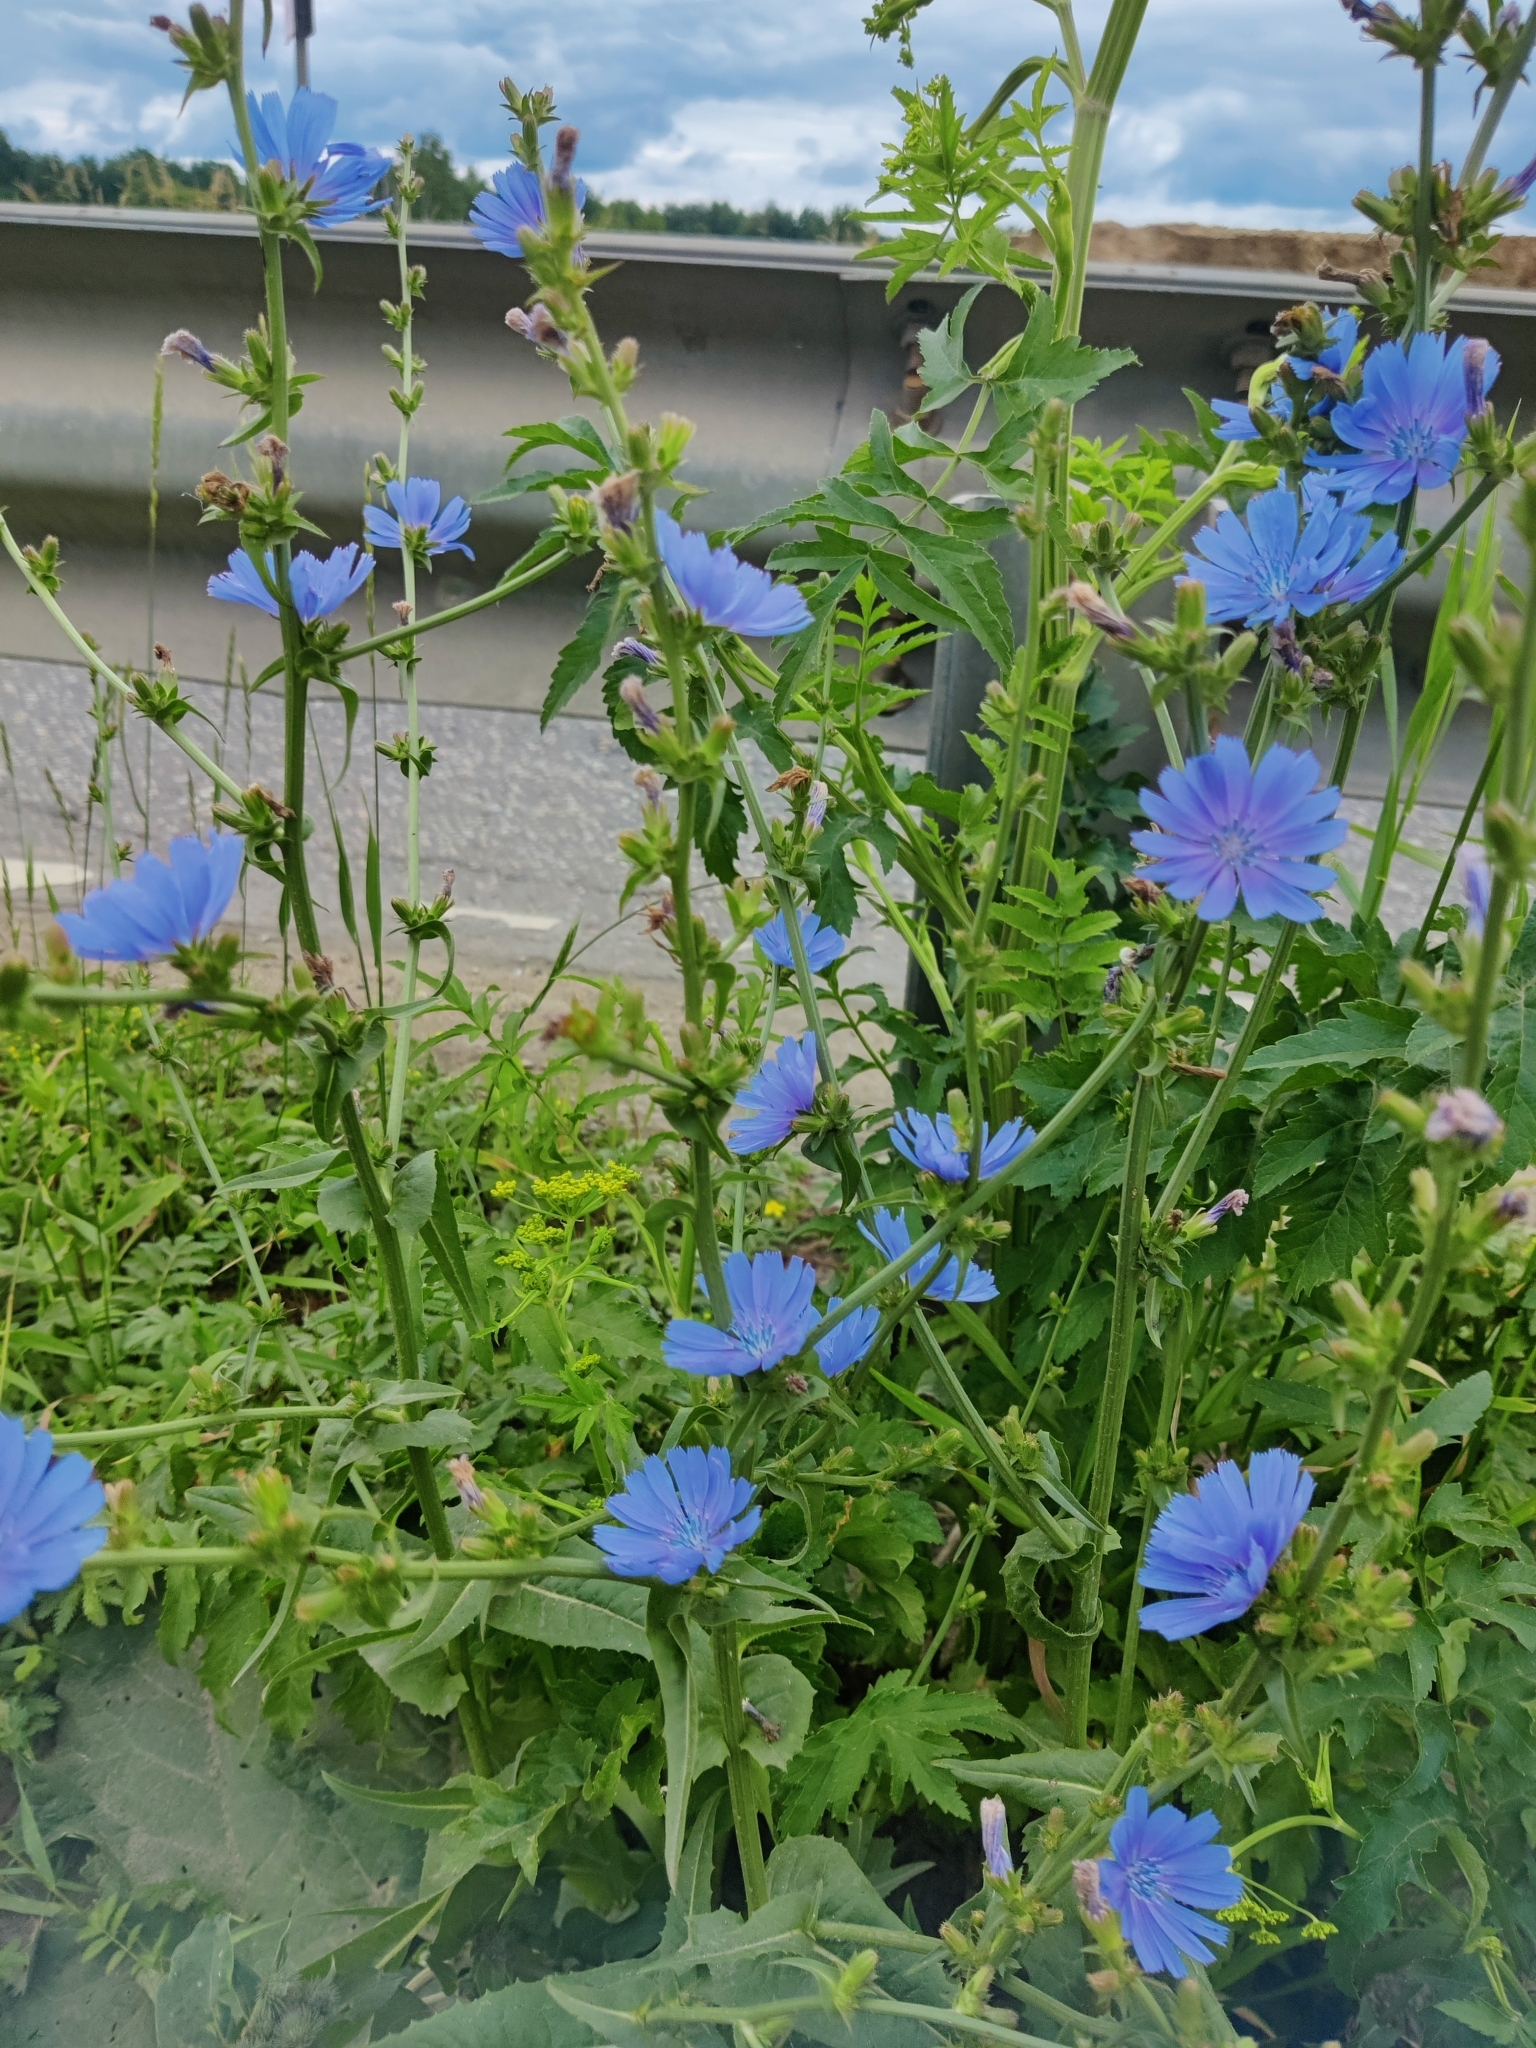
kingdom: Plantae
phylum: Tracheophyta
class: Magnoliopsida
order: Asterales
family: Asteraceae
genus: Cichorium
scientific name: Cichorium intybus
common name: Chicory
